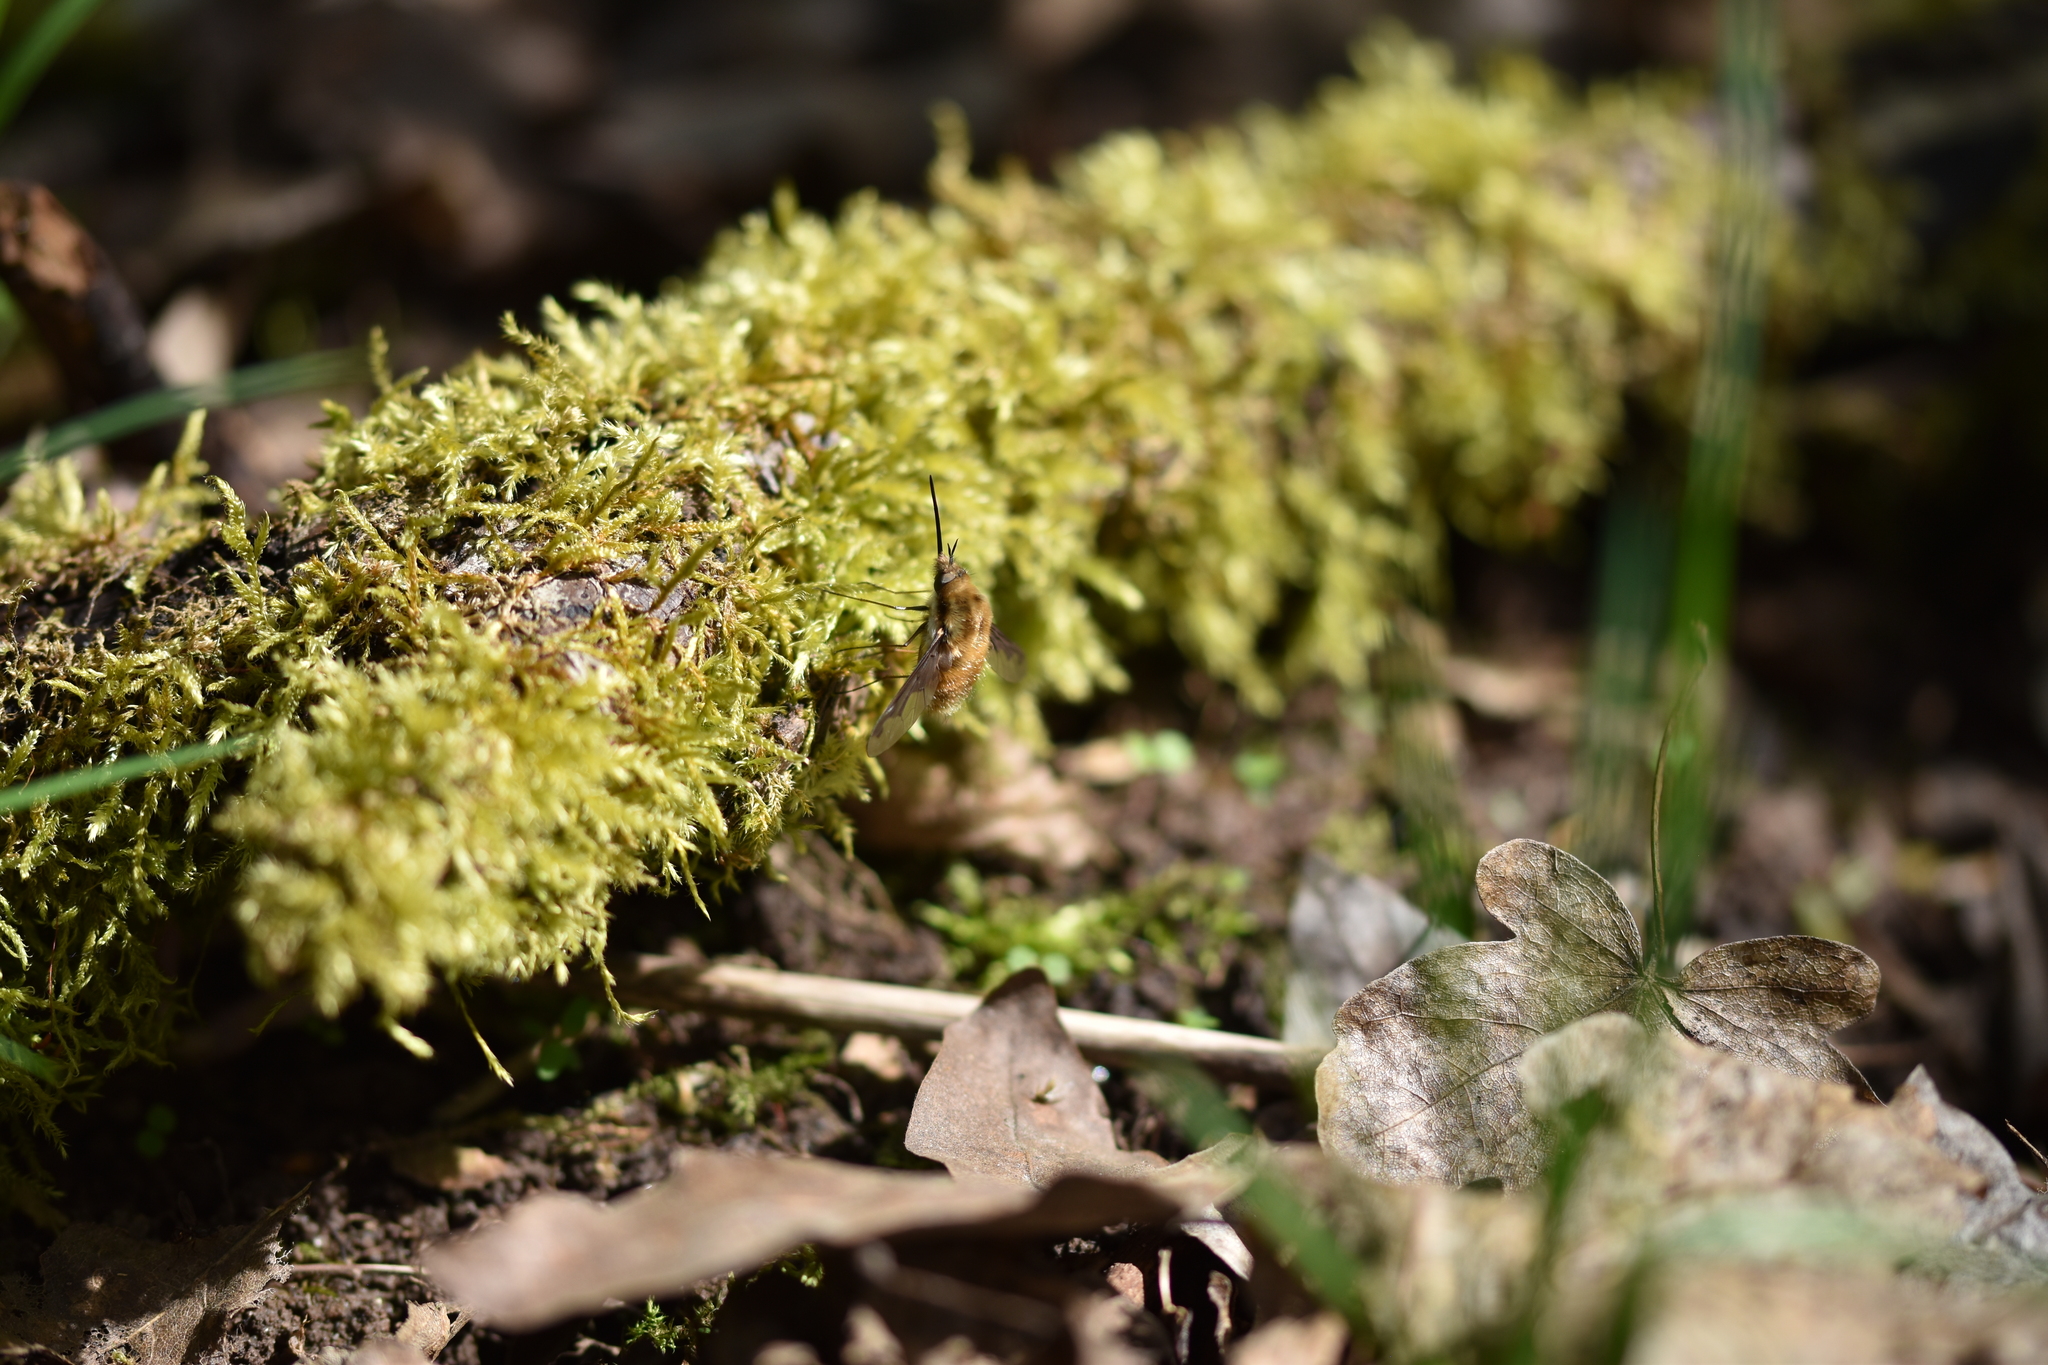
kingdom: Animalia
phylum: Arthropoda
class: Insecta
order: Diptera
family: Bombyliidae
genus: Bombylius
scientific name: Bombylius major
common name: Bee fly
